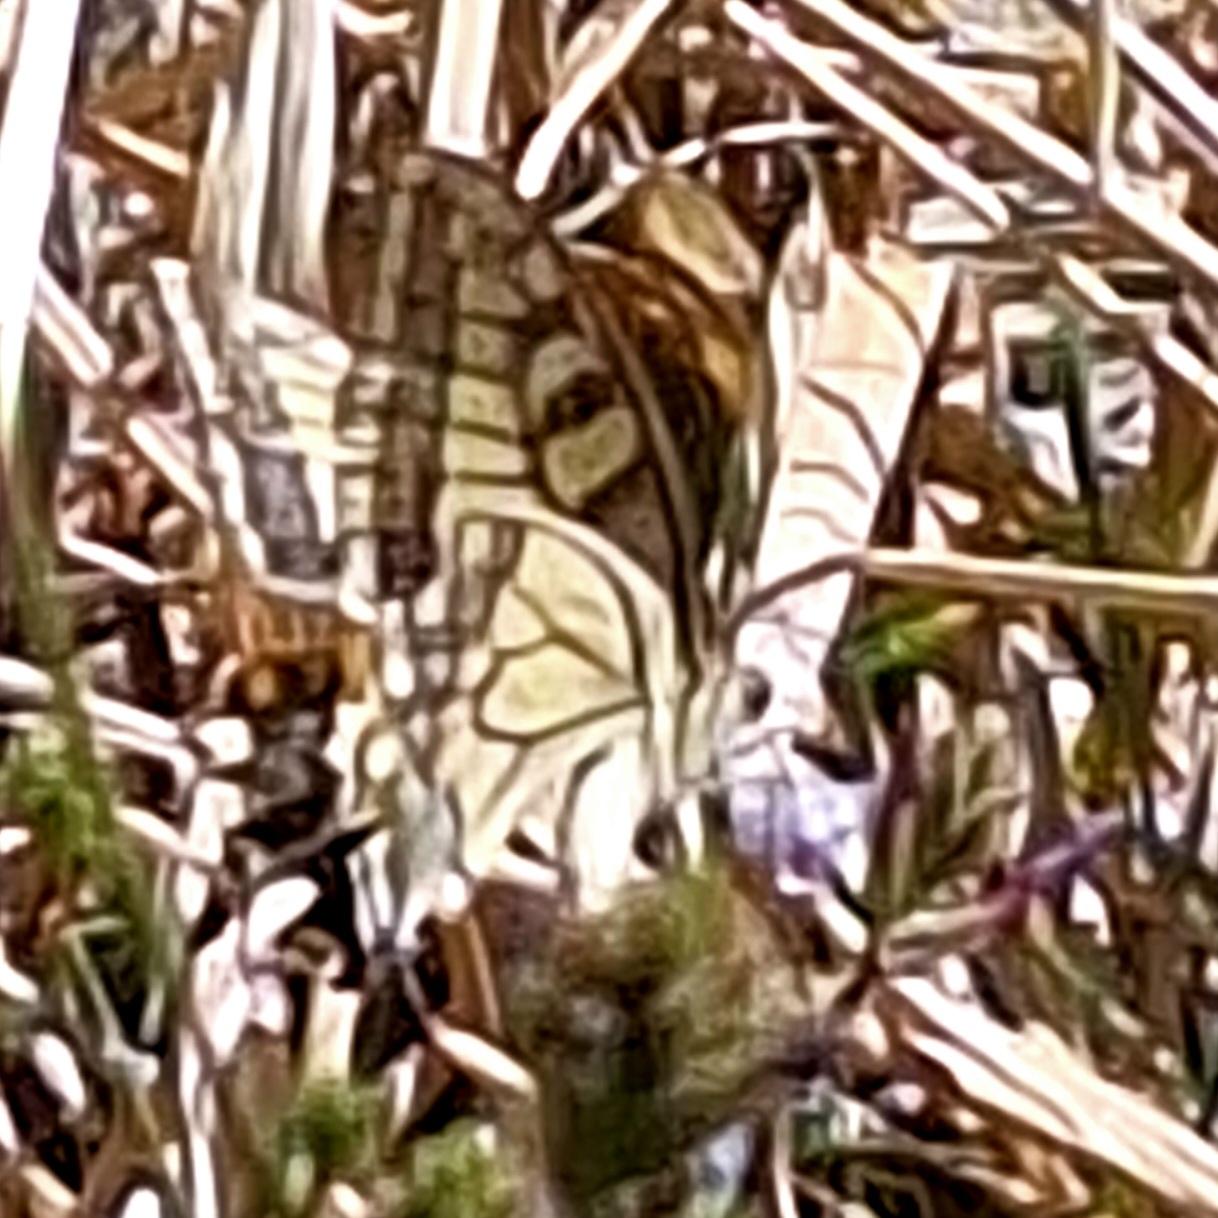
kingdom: Animalia
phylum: Arthropoda
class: Insecta
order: Lepidoptera
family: Papilionidae
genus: Papilio
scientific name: Papilio machaon
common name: Swallowtail
